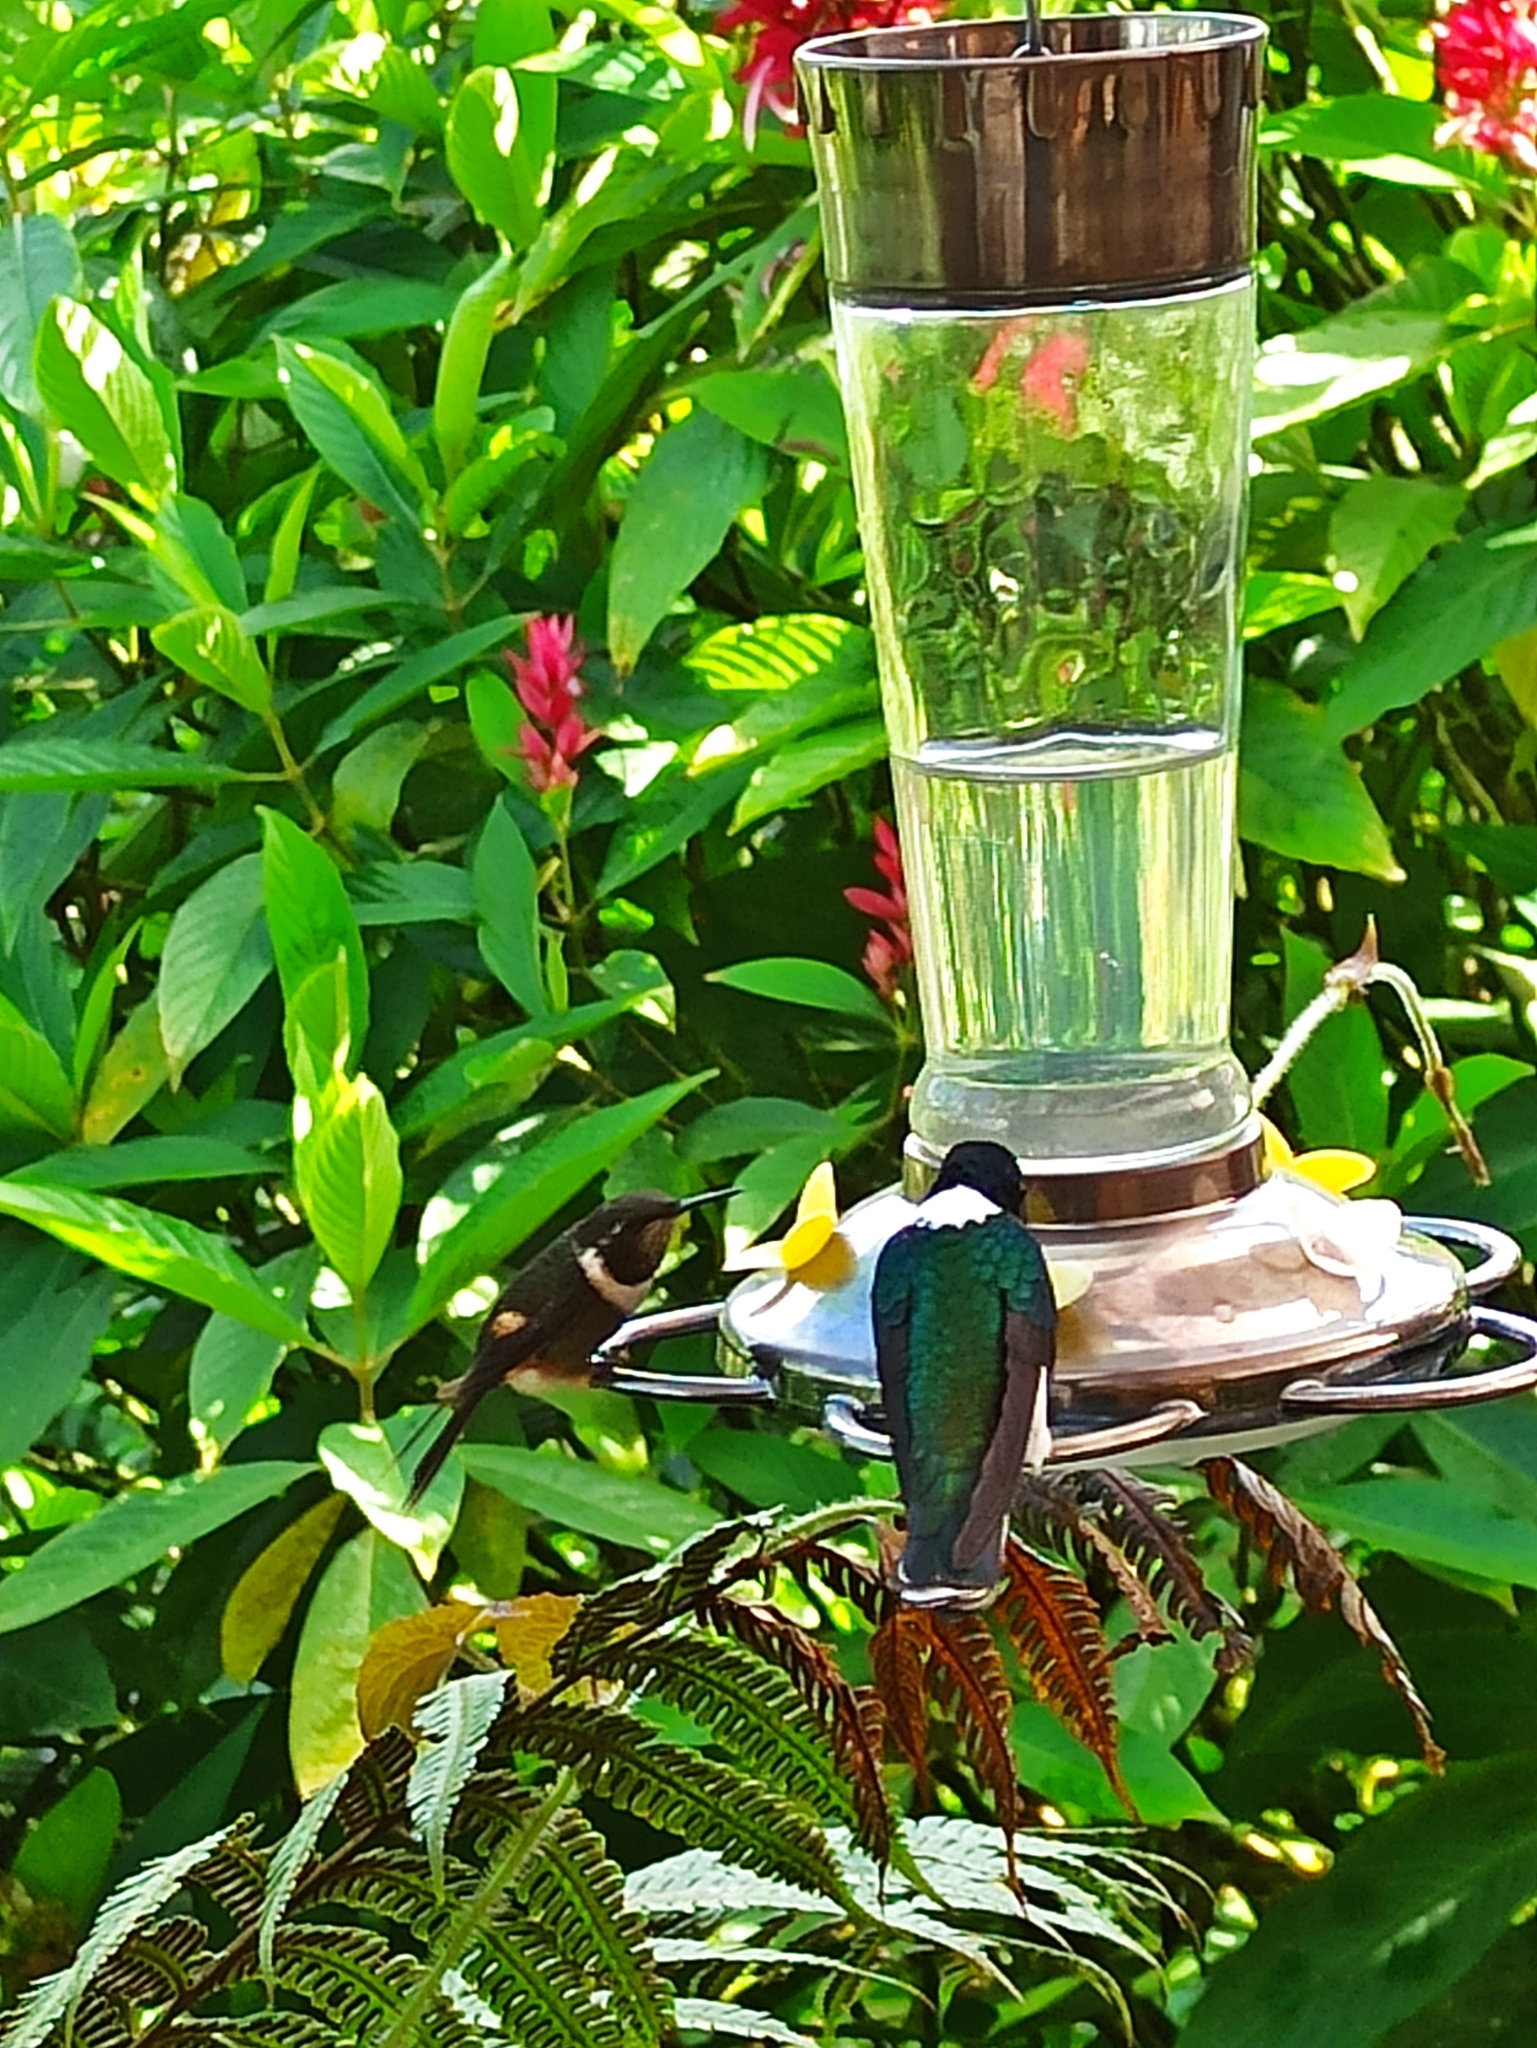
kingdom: Animalia
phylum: Chordata
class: Aves
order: Apodiformes
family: Trochilidae
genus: Coeligena
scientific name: Coeligena torquata
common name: Collared inca
